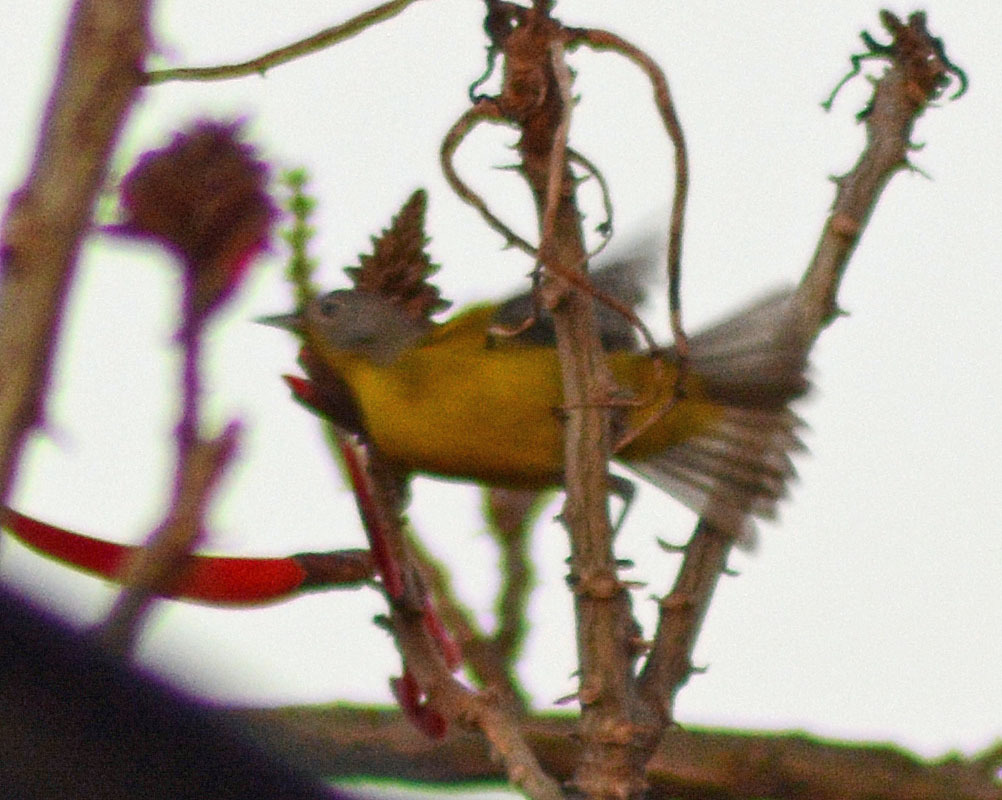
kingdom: Animalia
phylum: Chordata
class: Aves
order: Passeriformes
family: Parulidae
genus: Leiothlypis
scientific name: Leiothlypis ruficapilla
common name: Nashville warbler
